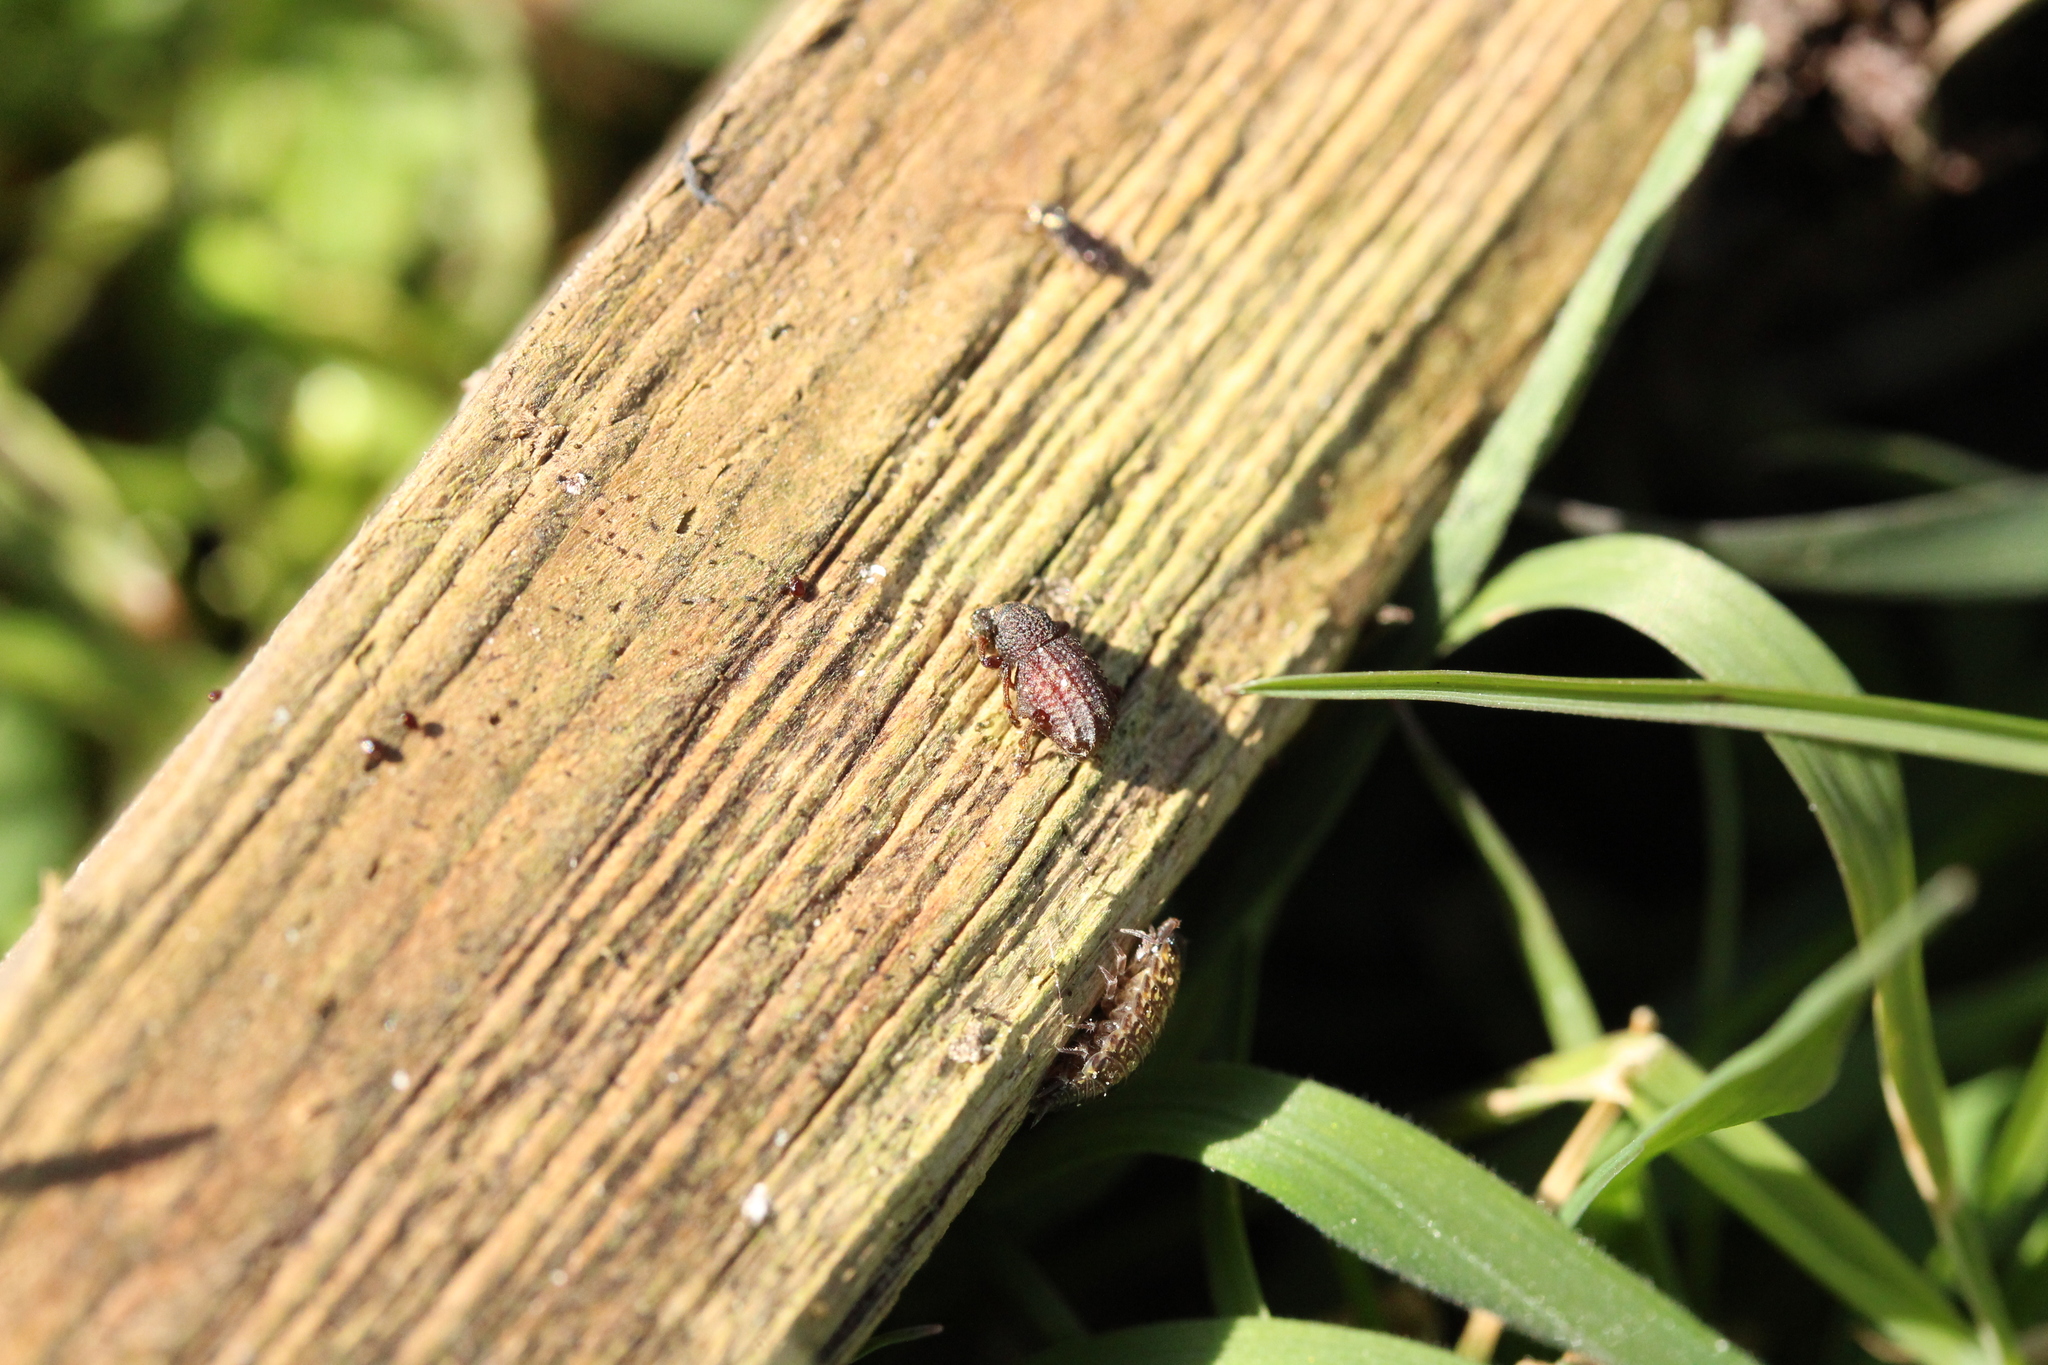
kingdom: Animalia
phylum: Arthropoda
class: Insecta
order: Coleoptera
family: Curculionidae
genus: Otiorhynchus
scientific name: Otiorhynchus porcatus
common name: Weevil
